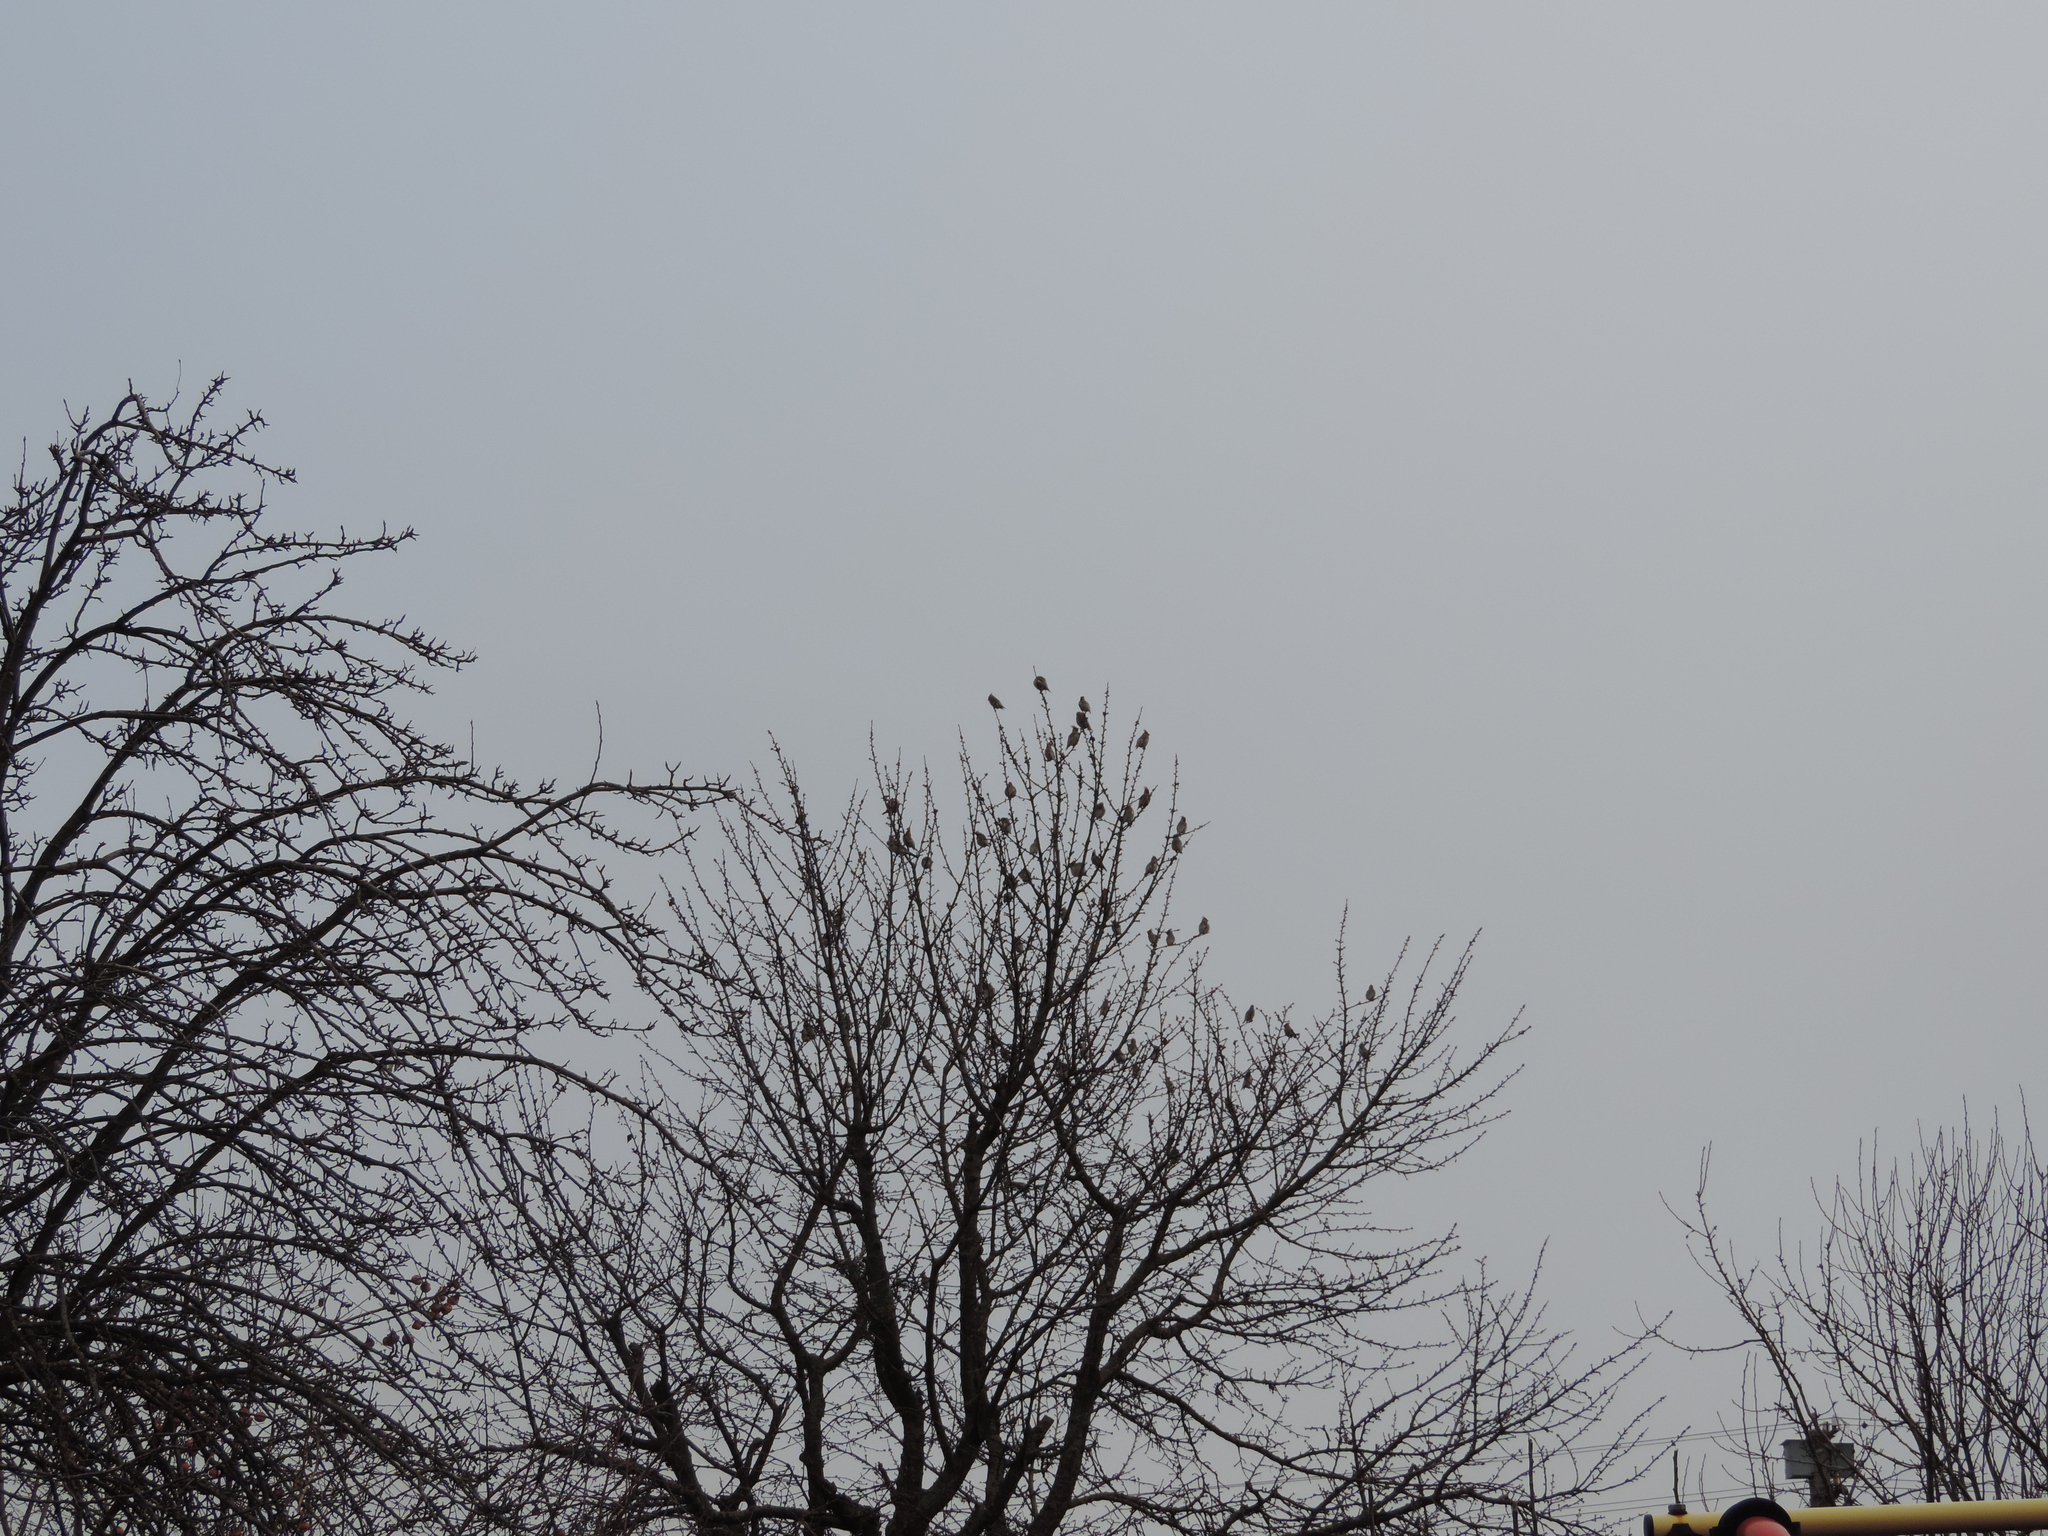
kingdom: Animalia
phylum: Chordata
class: Aves
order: Passeriformes
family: Bombycillidae
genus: Bombycilla
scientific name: Bombycilla garrulus
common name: Bohemian waxwing
